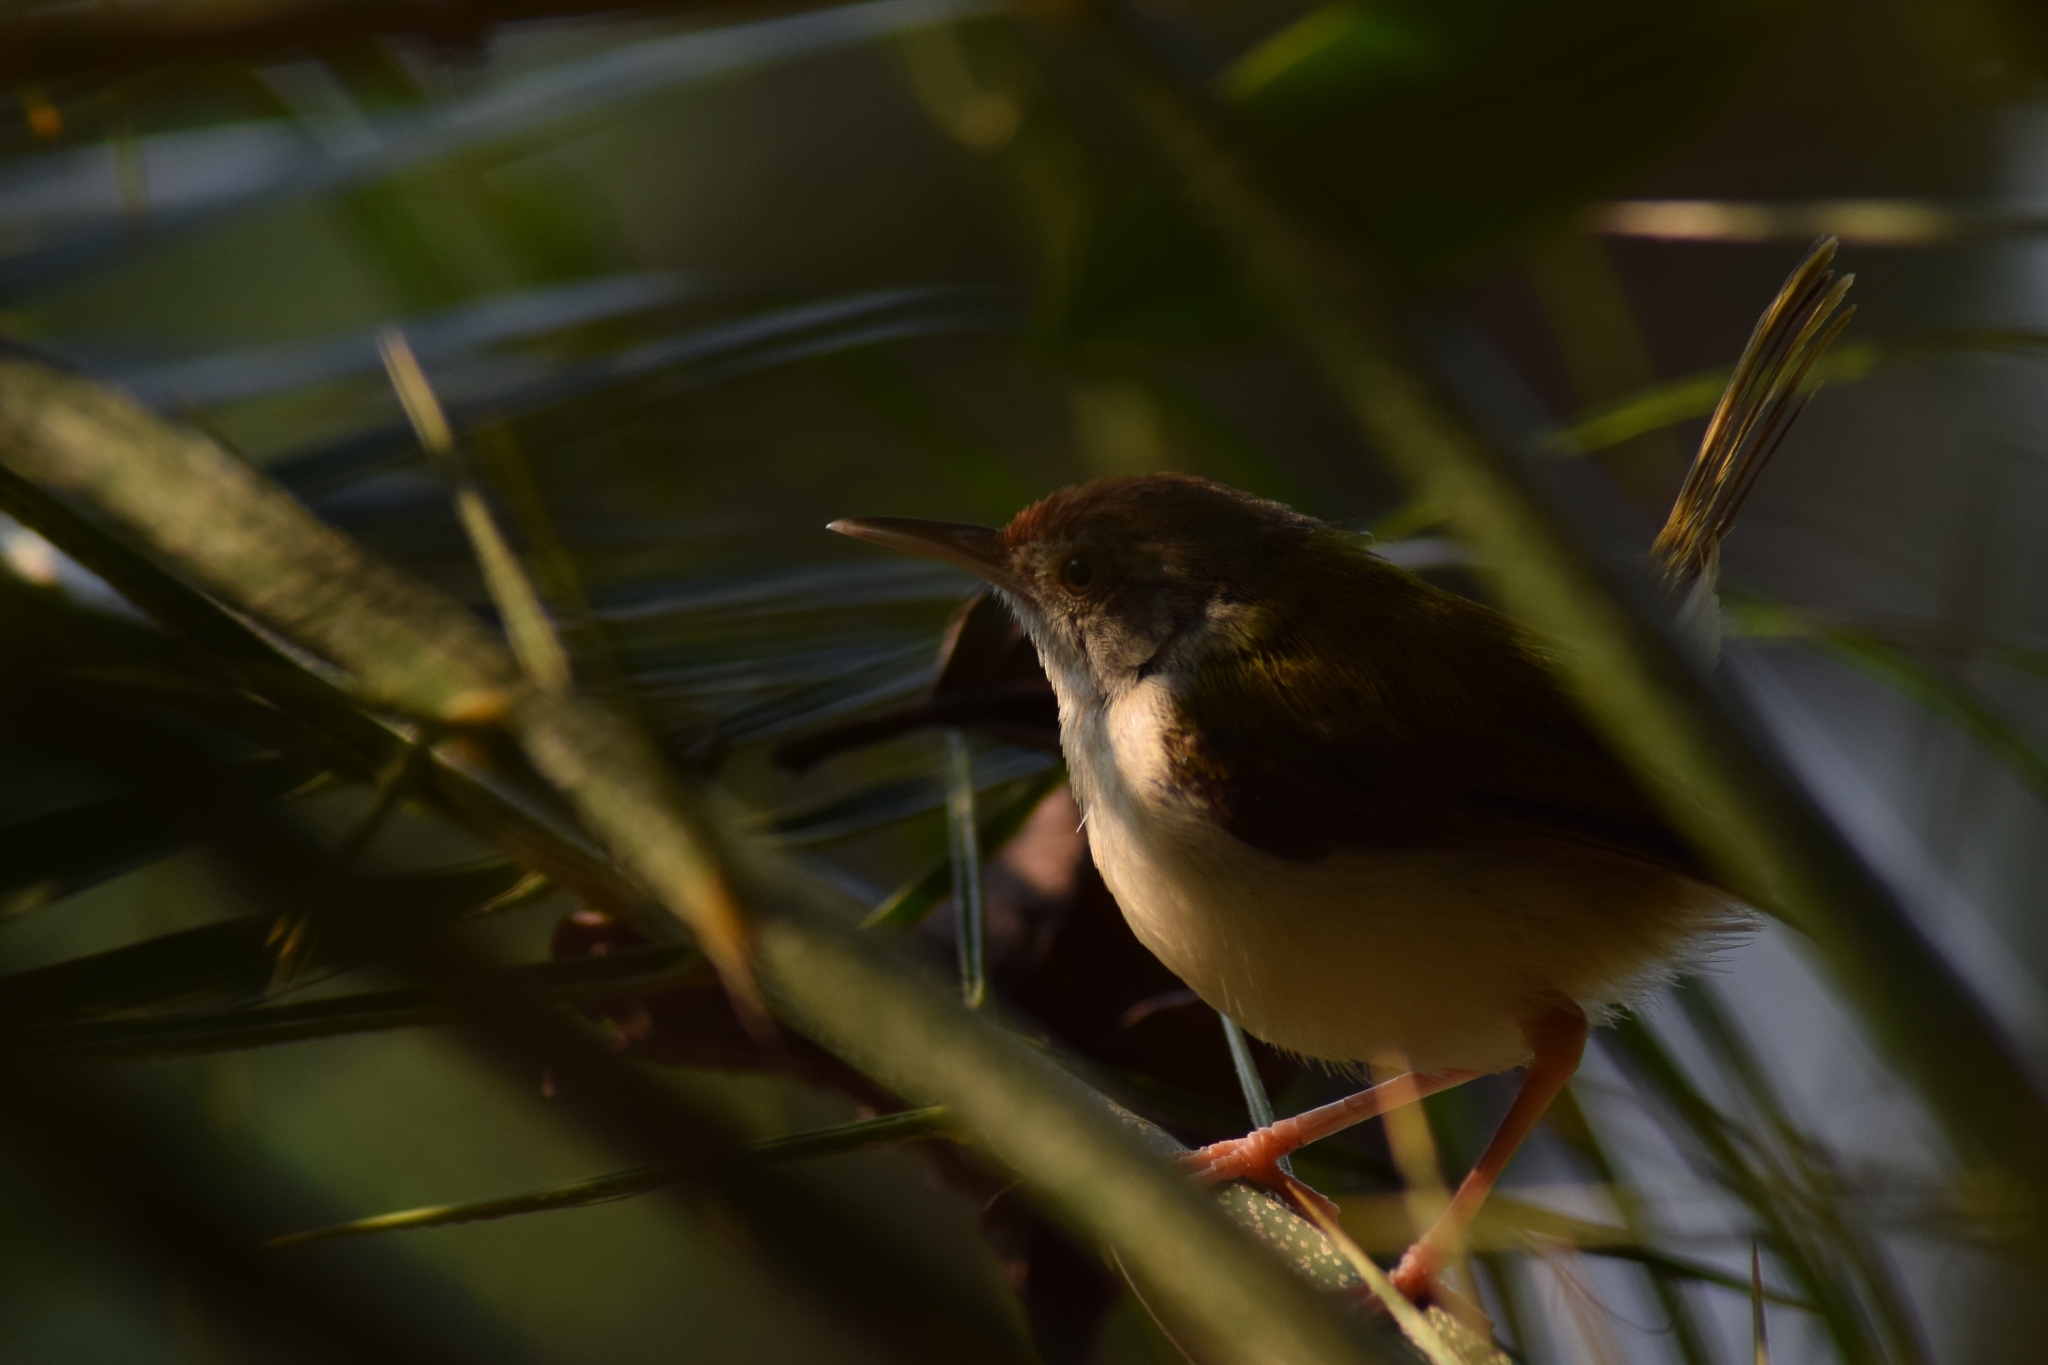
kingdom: Animalia
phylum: Chordata
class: Aves
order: Passeriformes
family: Cisticolidae
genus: Orthotomus
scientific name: Orthotomus sutorius
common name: Common tailorbird
